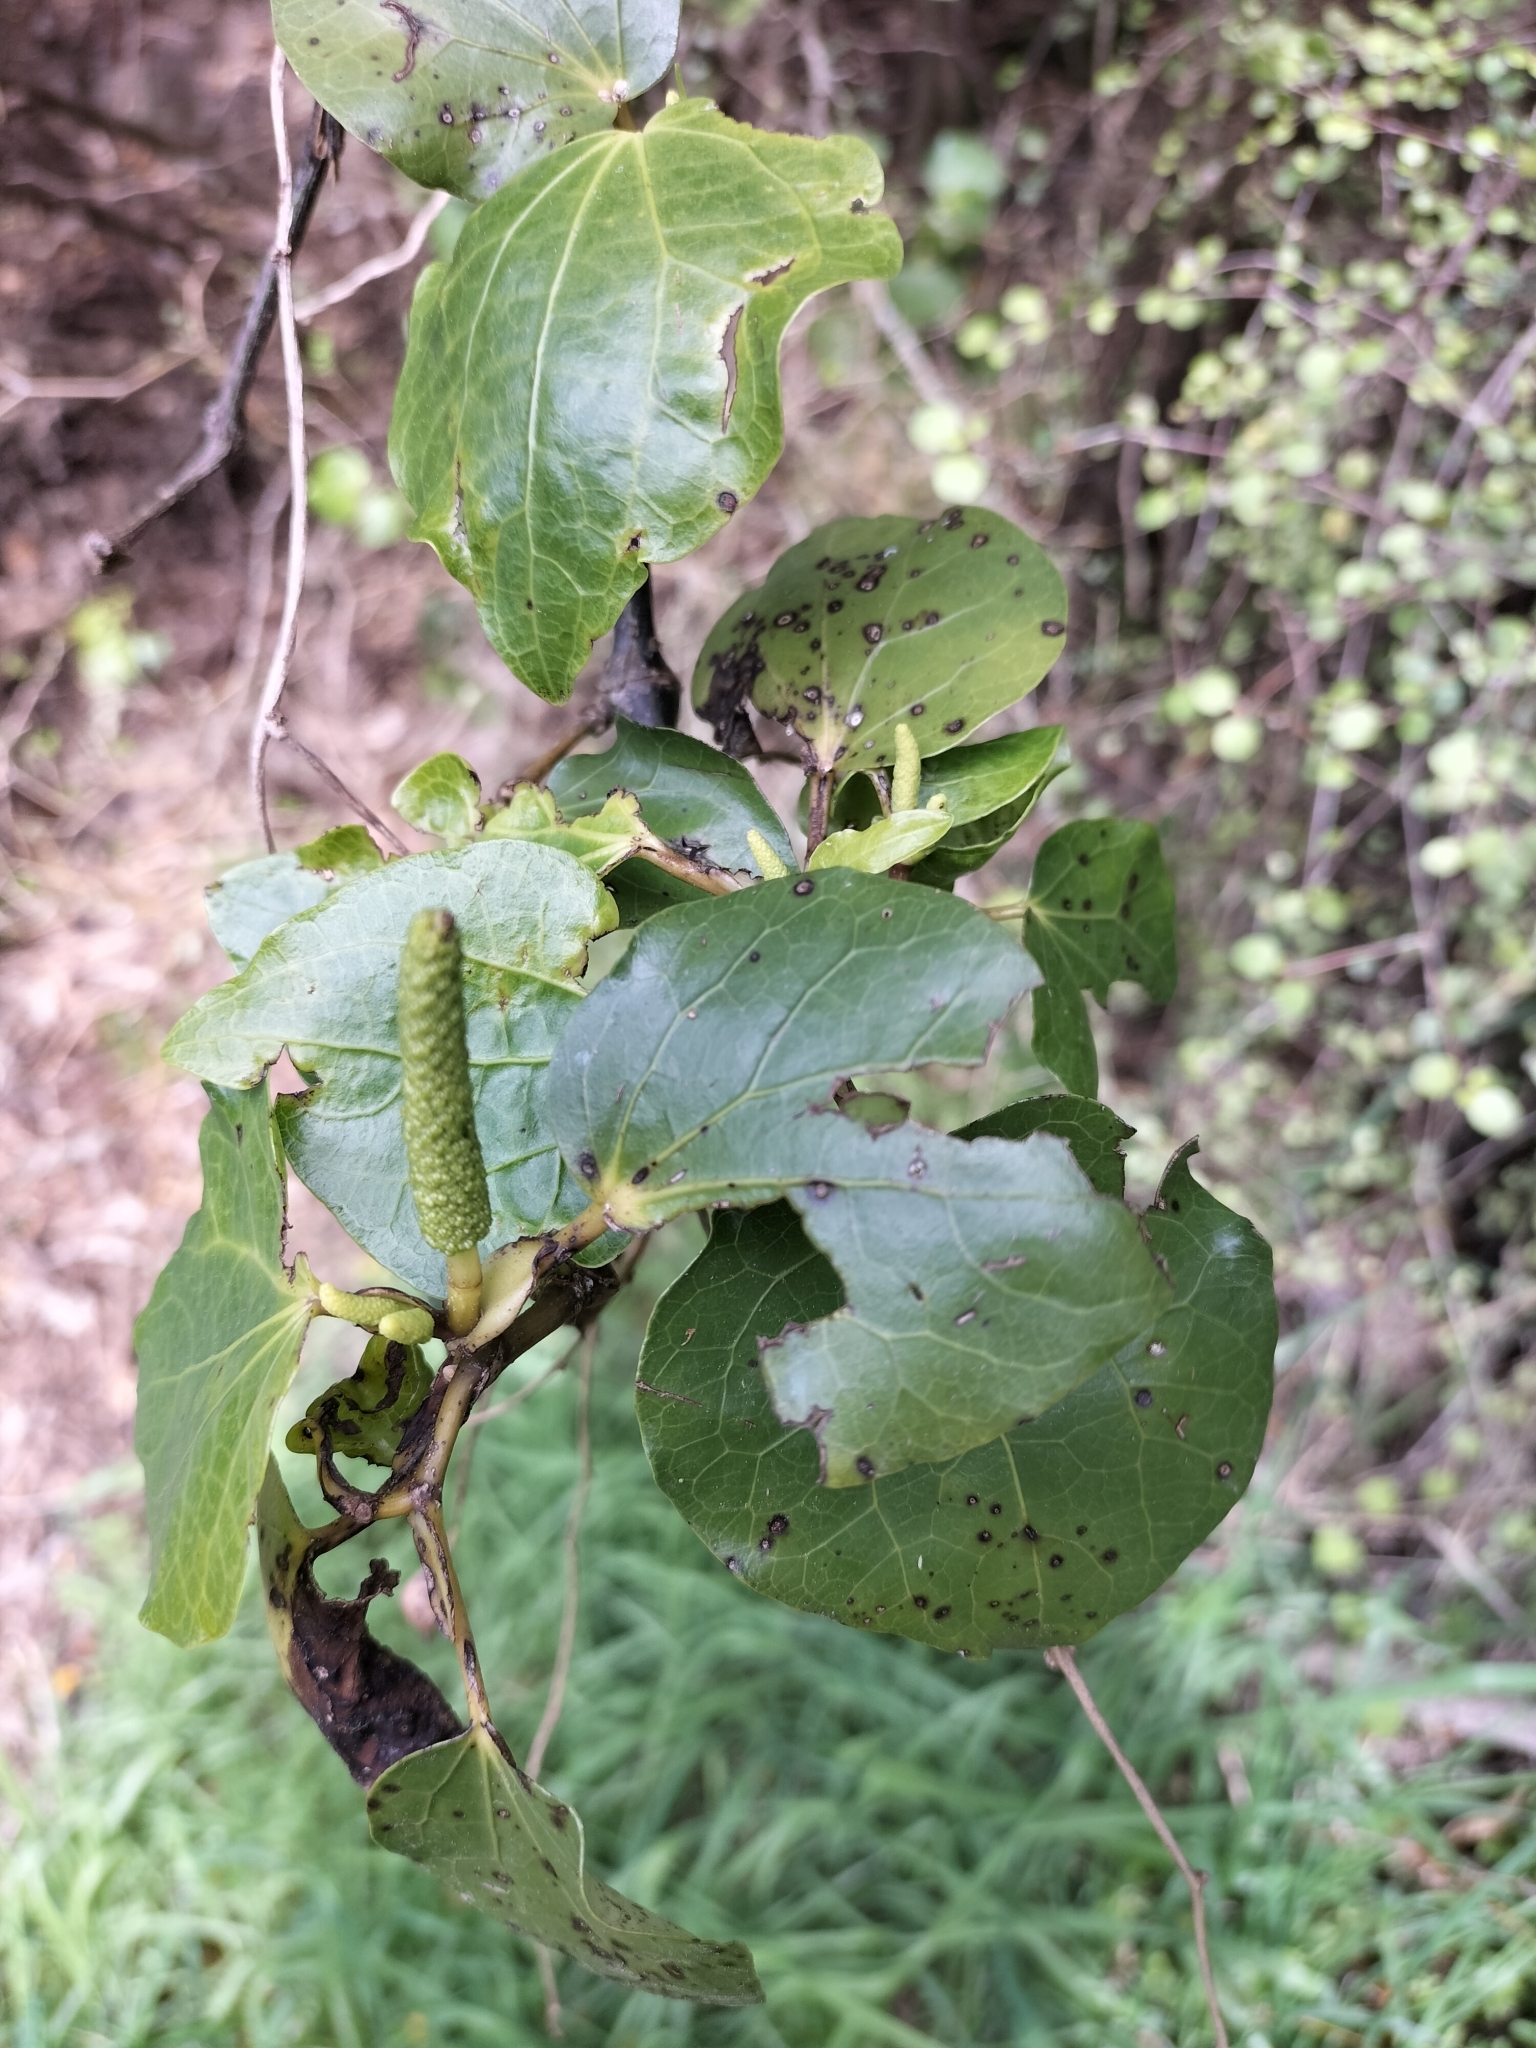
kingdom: Plantae
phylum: Tracheophyta
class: Magnoliopsida
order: Piperales
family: Piperaceae
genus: Macropiper
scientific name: Macropiper excelsum
